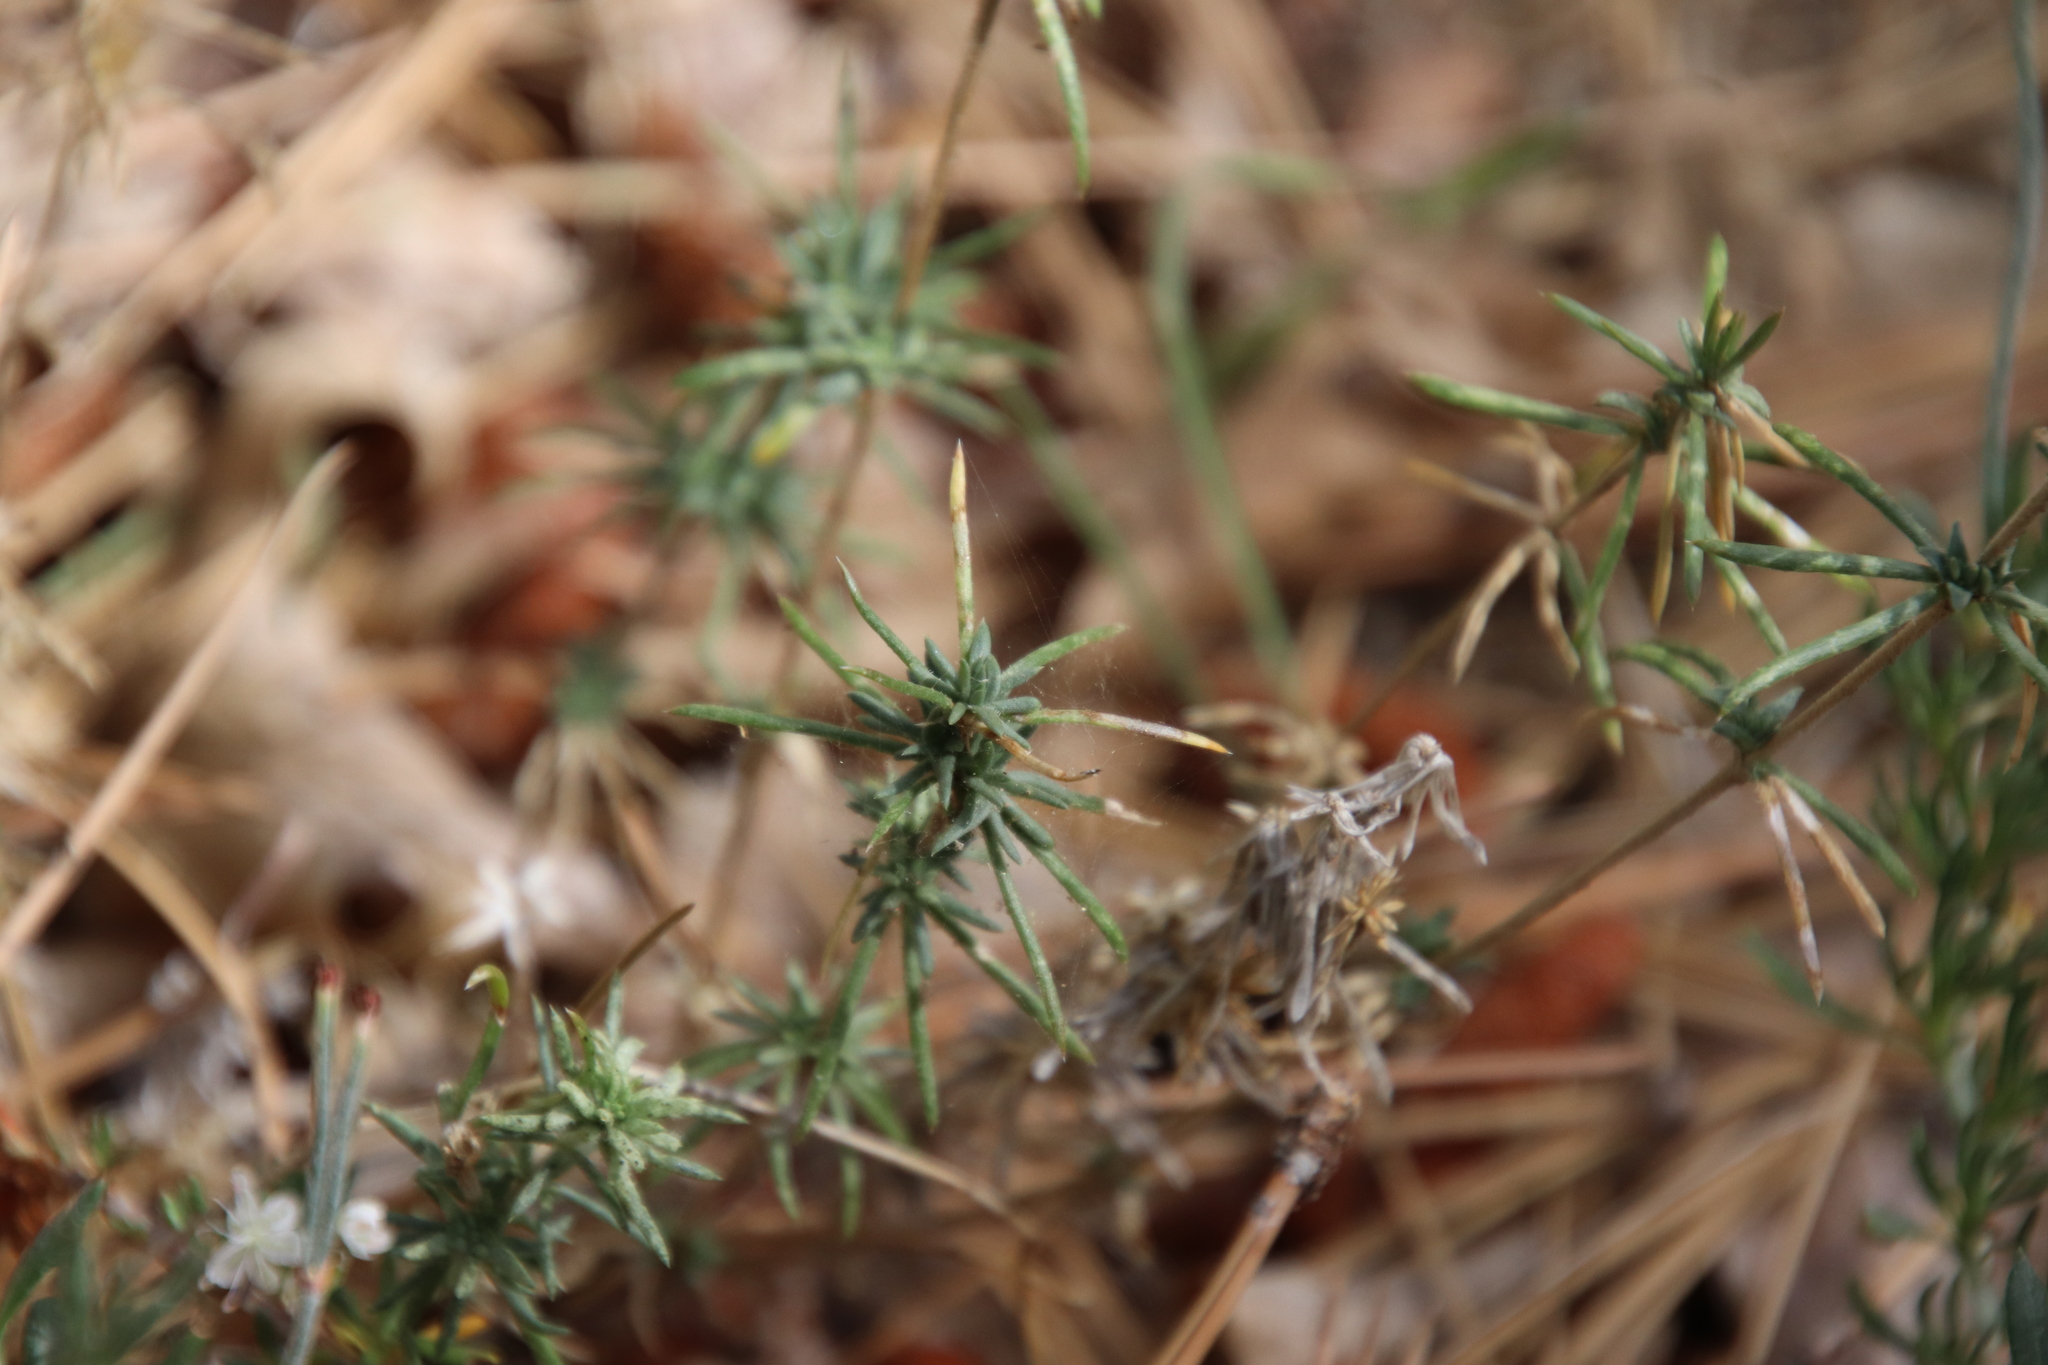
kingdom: Plantae
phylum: Tracheophyta
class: Magnoliopsida
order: Ericales
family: Polemoniaceae
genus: Leptosiphon
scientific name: Leptosiphon floribundum
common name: Many-flower linanthus
